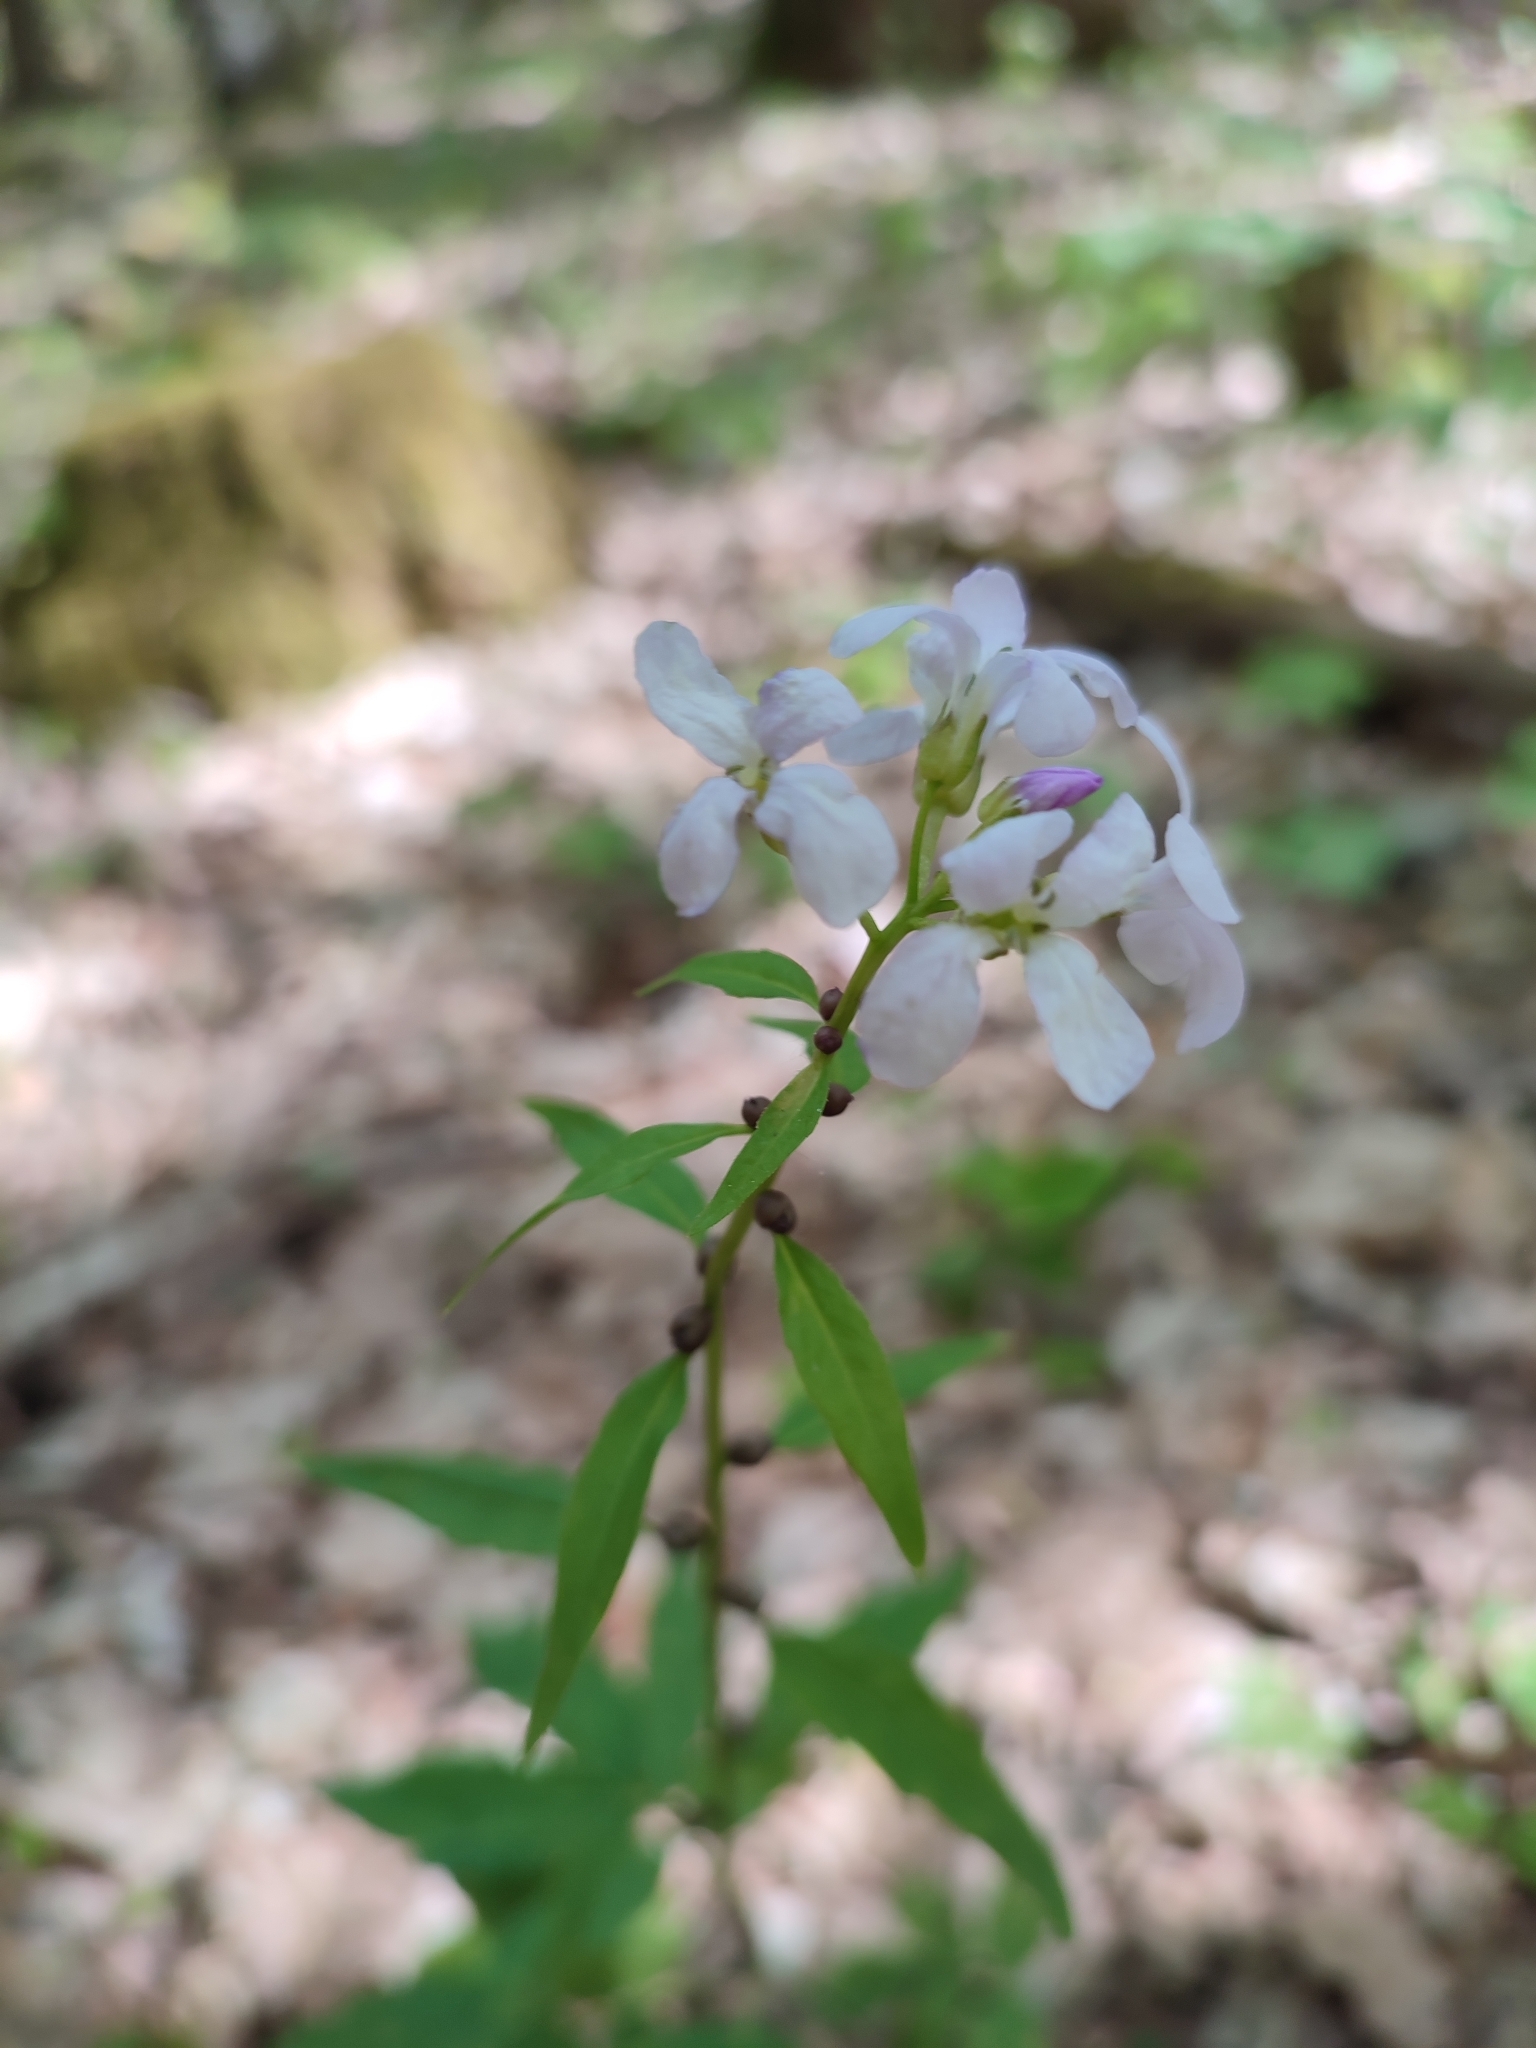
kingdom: Plantae
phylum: Tracheophyta
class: Magnoliopsida
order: Brassicales
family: Brassicaceae
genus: Cardamine
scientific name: Cardamine bulbifera
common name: Coralroot bittercress
